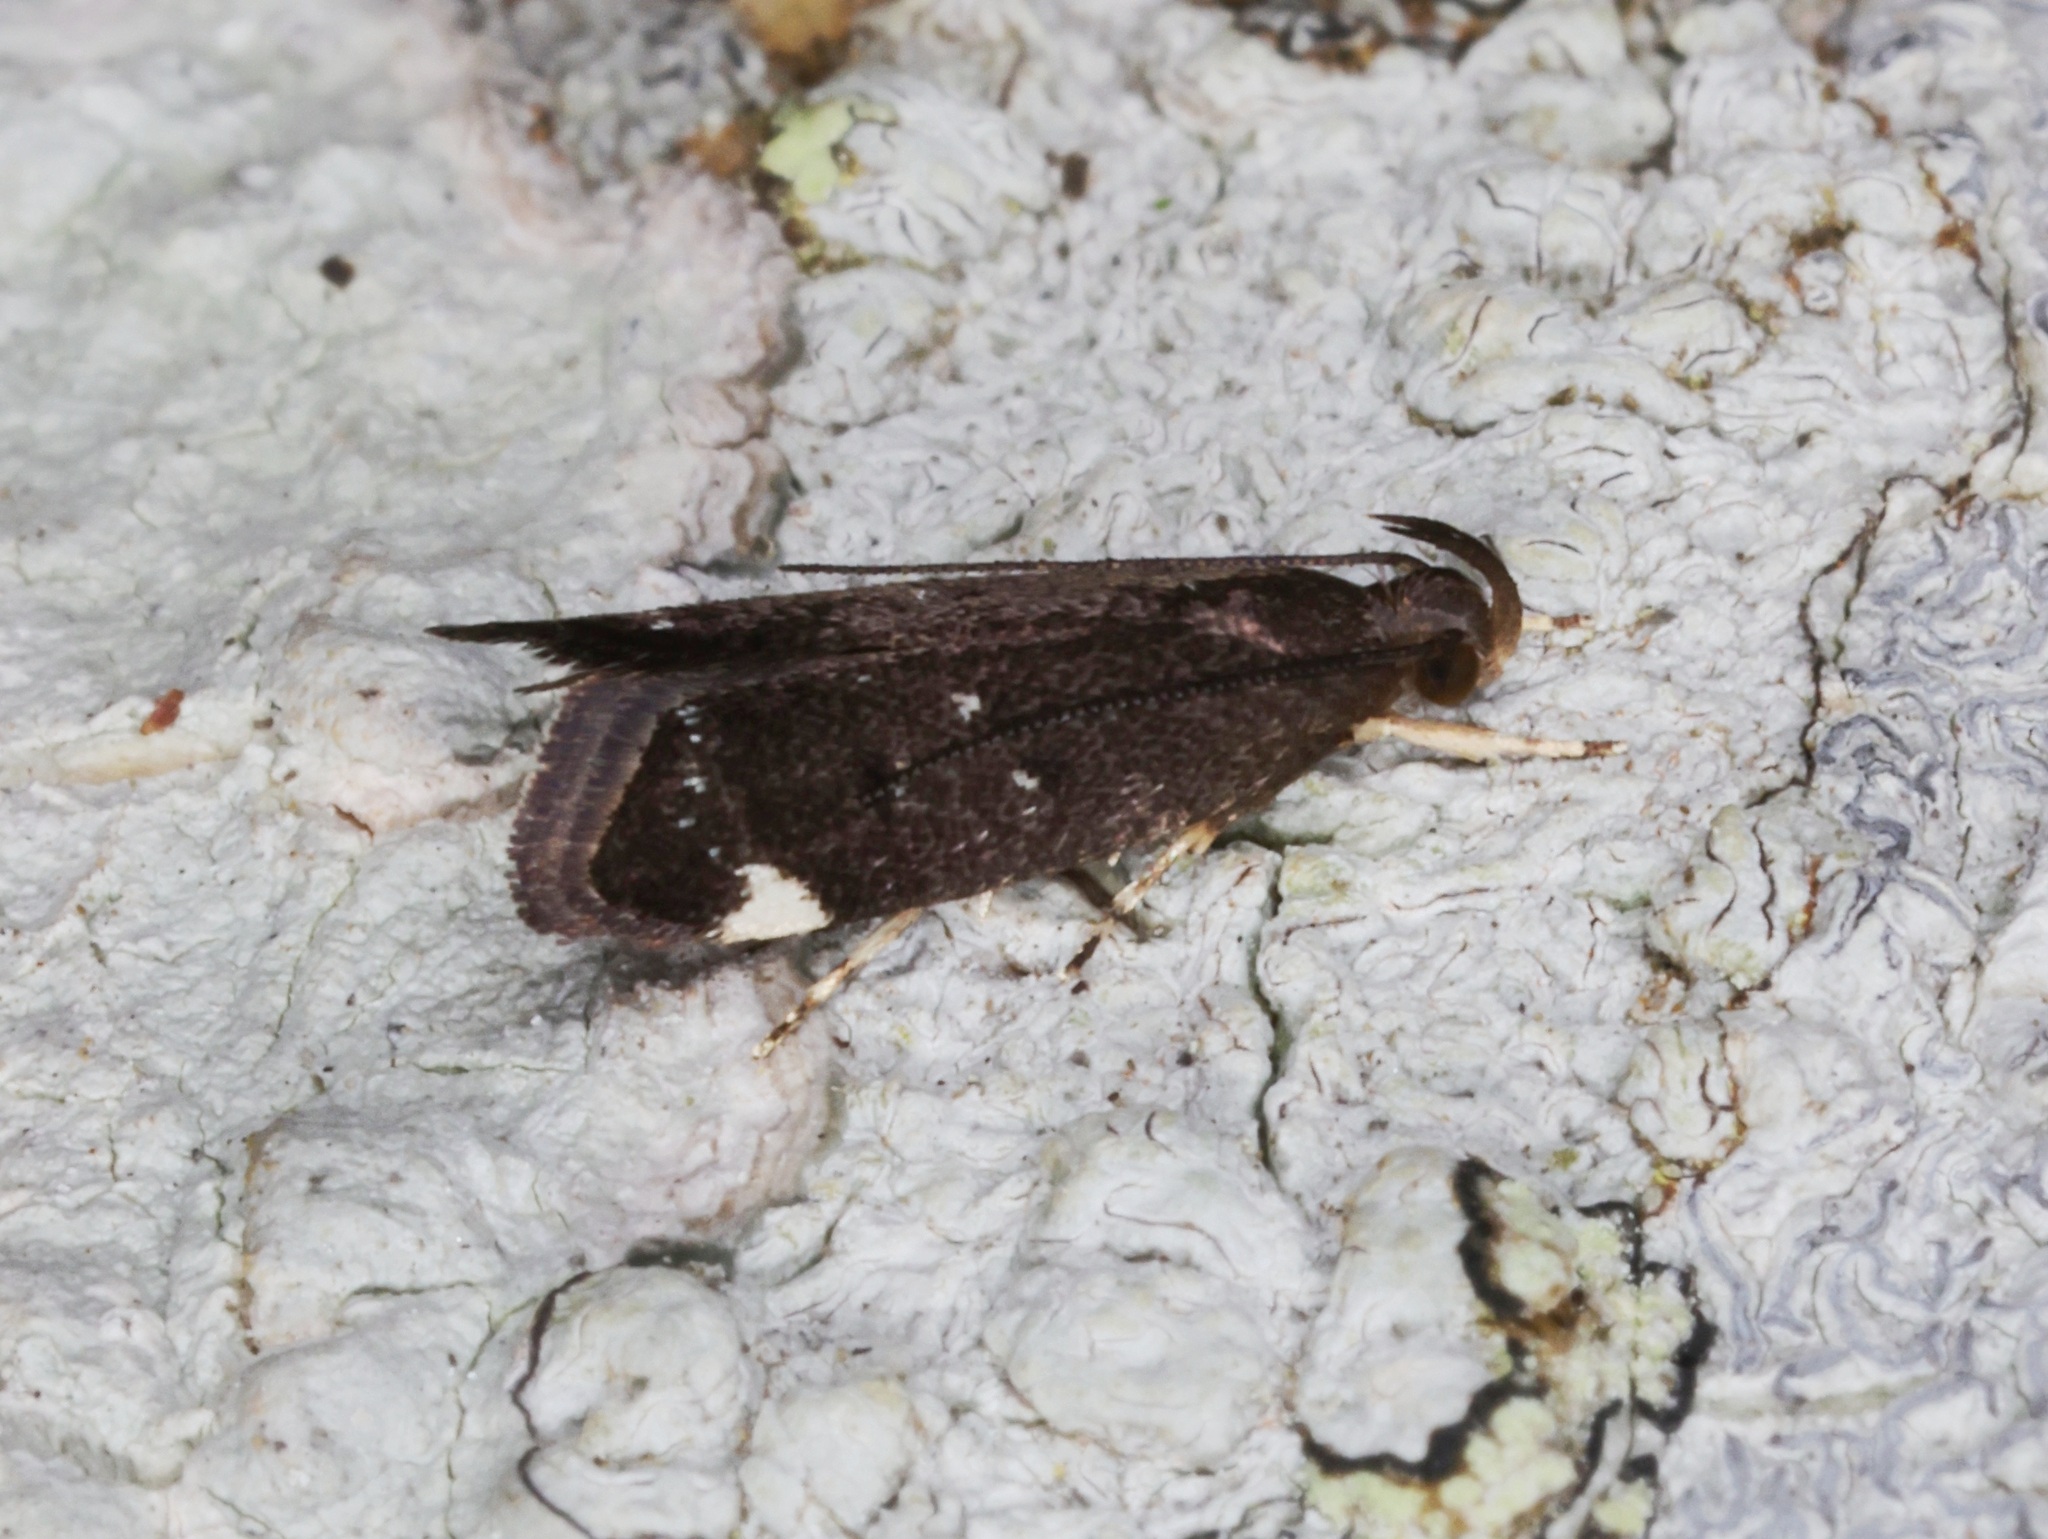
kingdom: Animalia
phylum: Arthropoda
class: Insecta
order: Lepidoptera
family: Autostichidae
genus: Ripeacma
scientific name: Ripeacma umbellata
